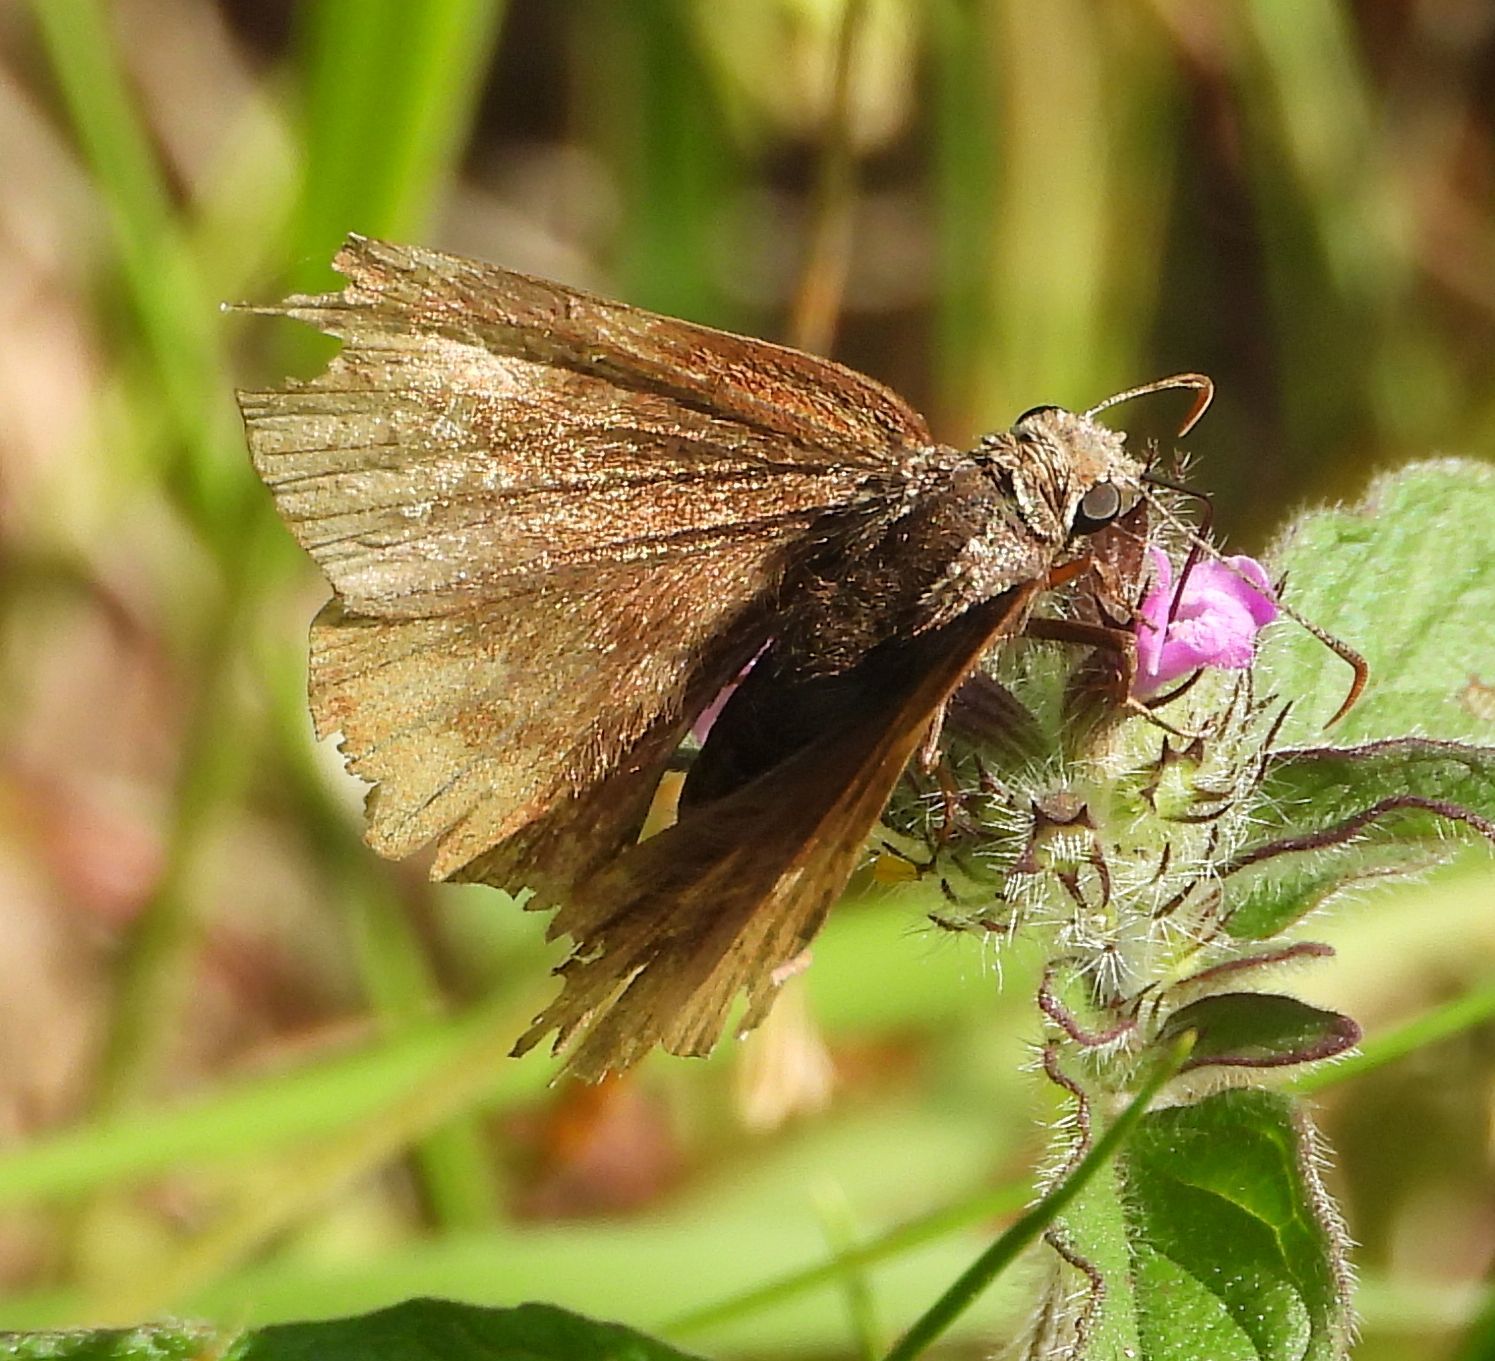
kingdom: Animalia
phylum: Arthropoda
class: Insecta
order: Lepidoptera
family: Hesperiidae
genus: Thorybes
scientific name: Thorybes pylades
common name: Northern cloudywing
